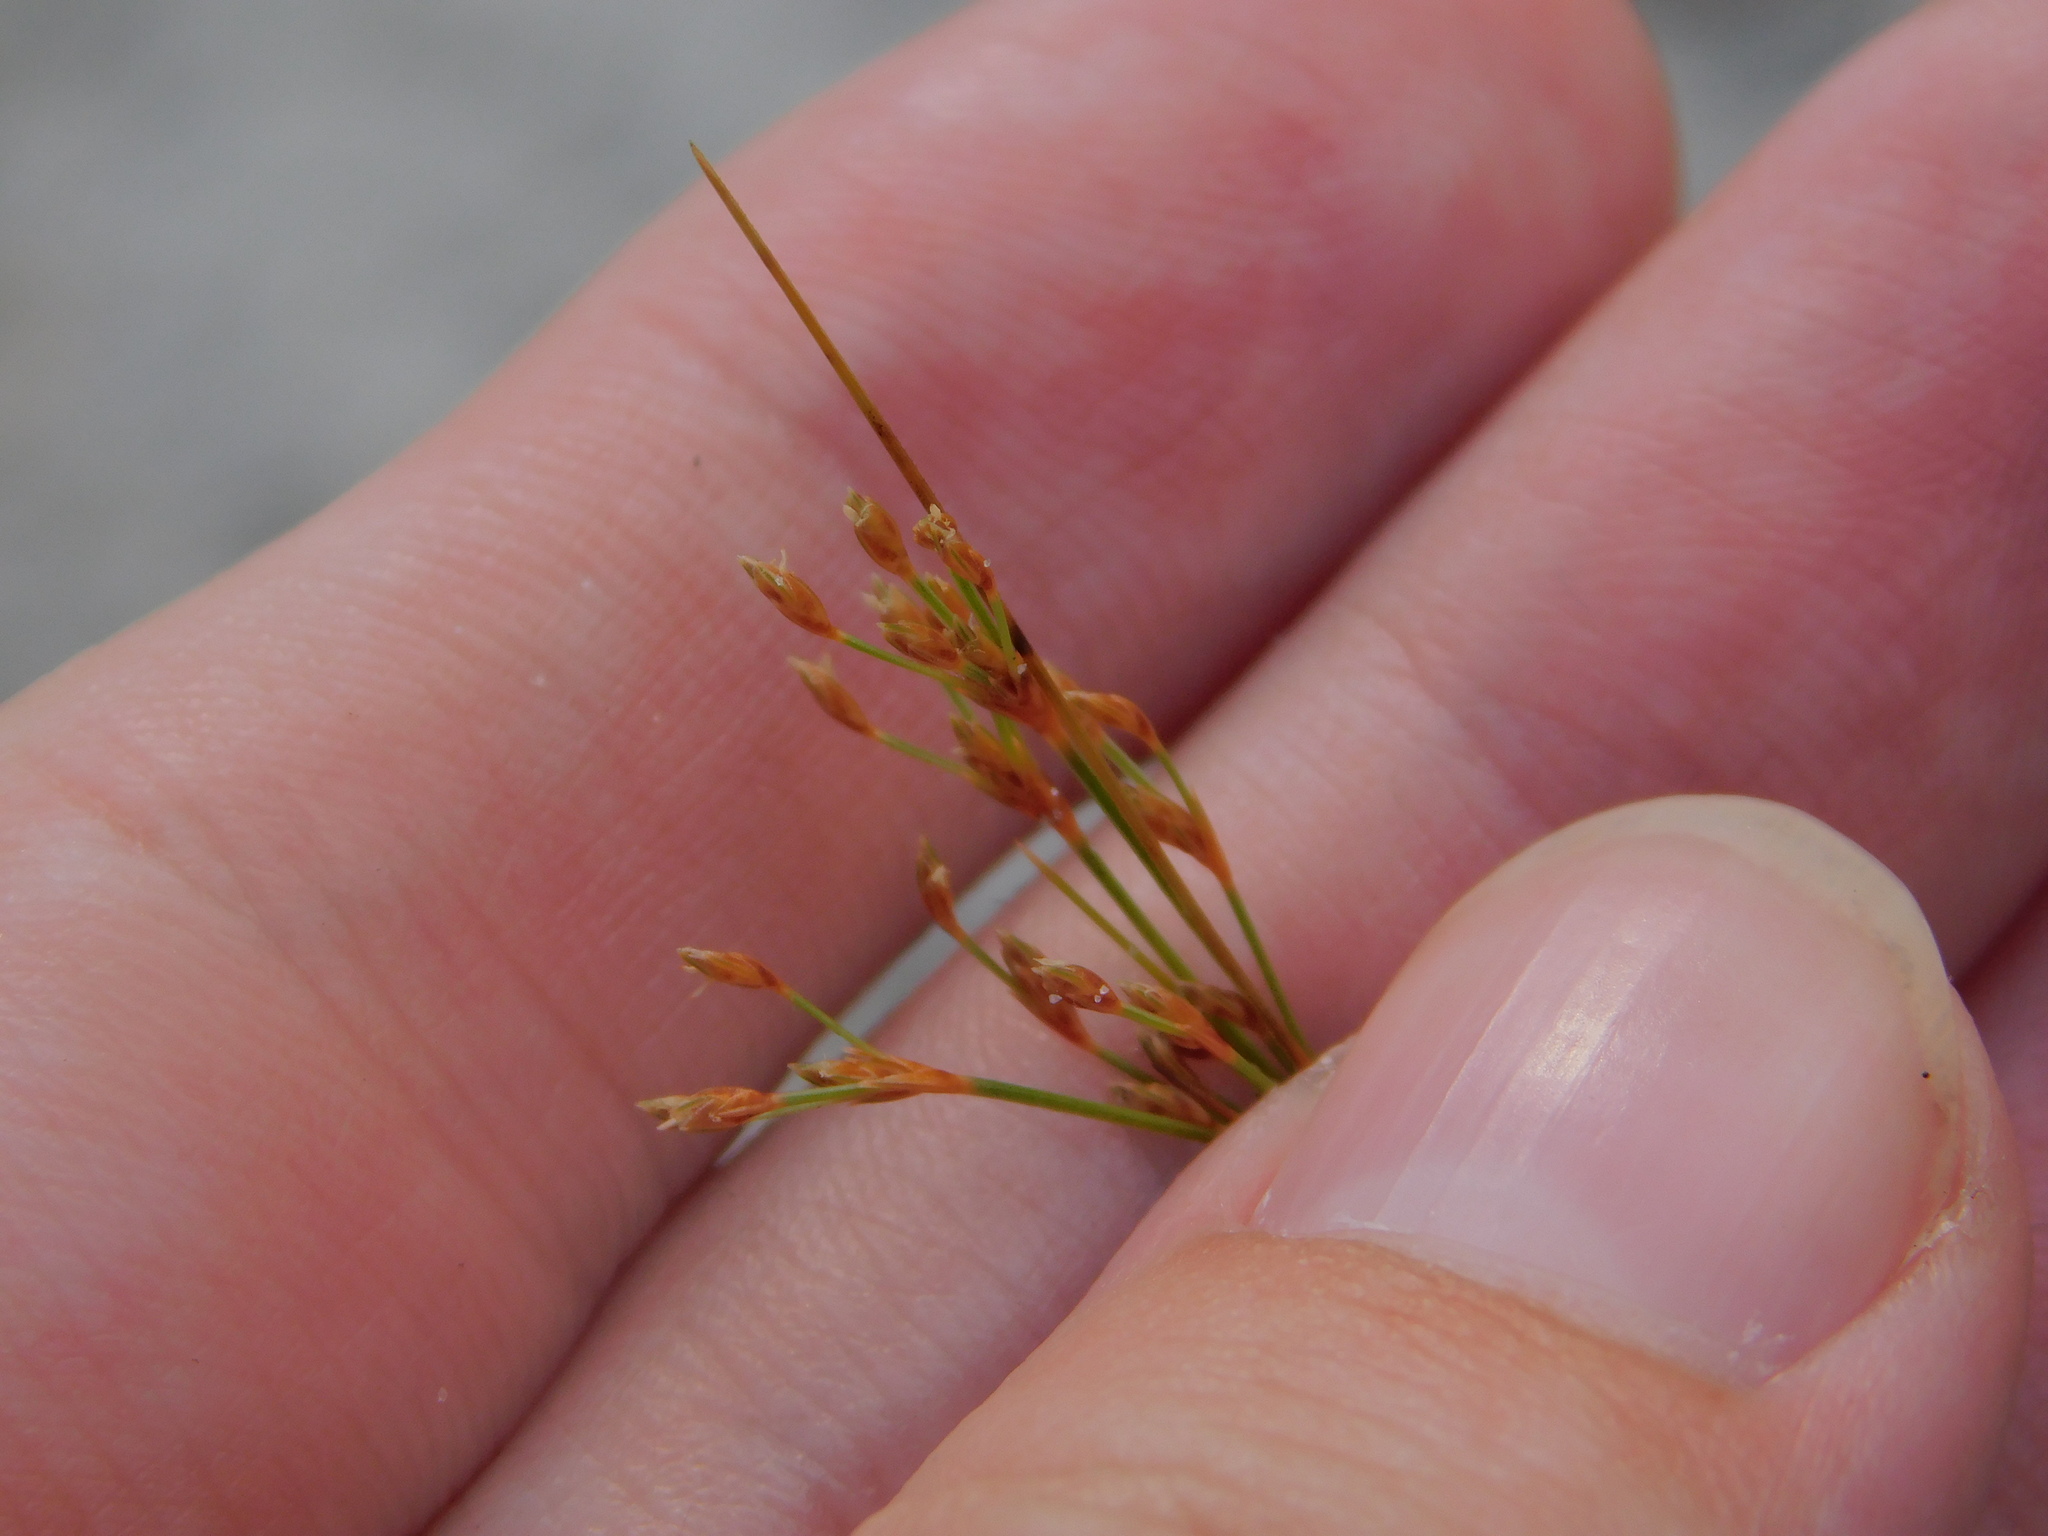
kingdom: Plantae
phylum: Tracheophyta
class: Liliopsida
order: Poales
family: Cyperaceae
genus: Bulbostylis
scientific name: Bulbostylis ciliatifolia
